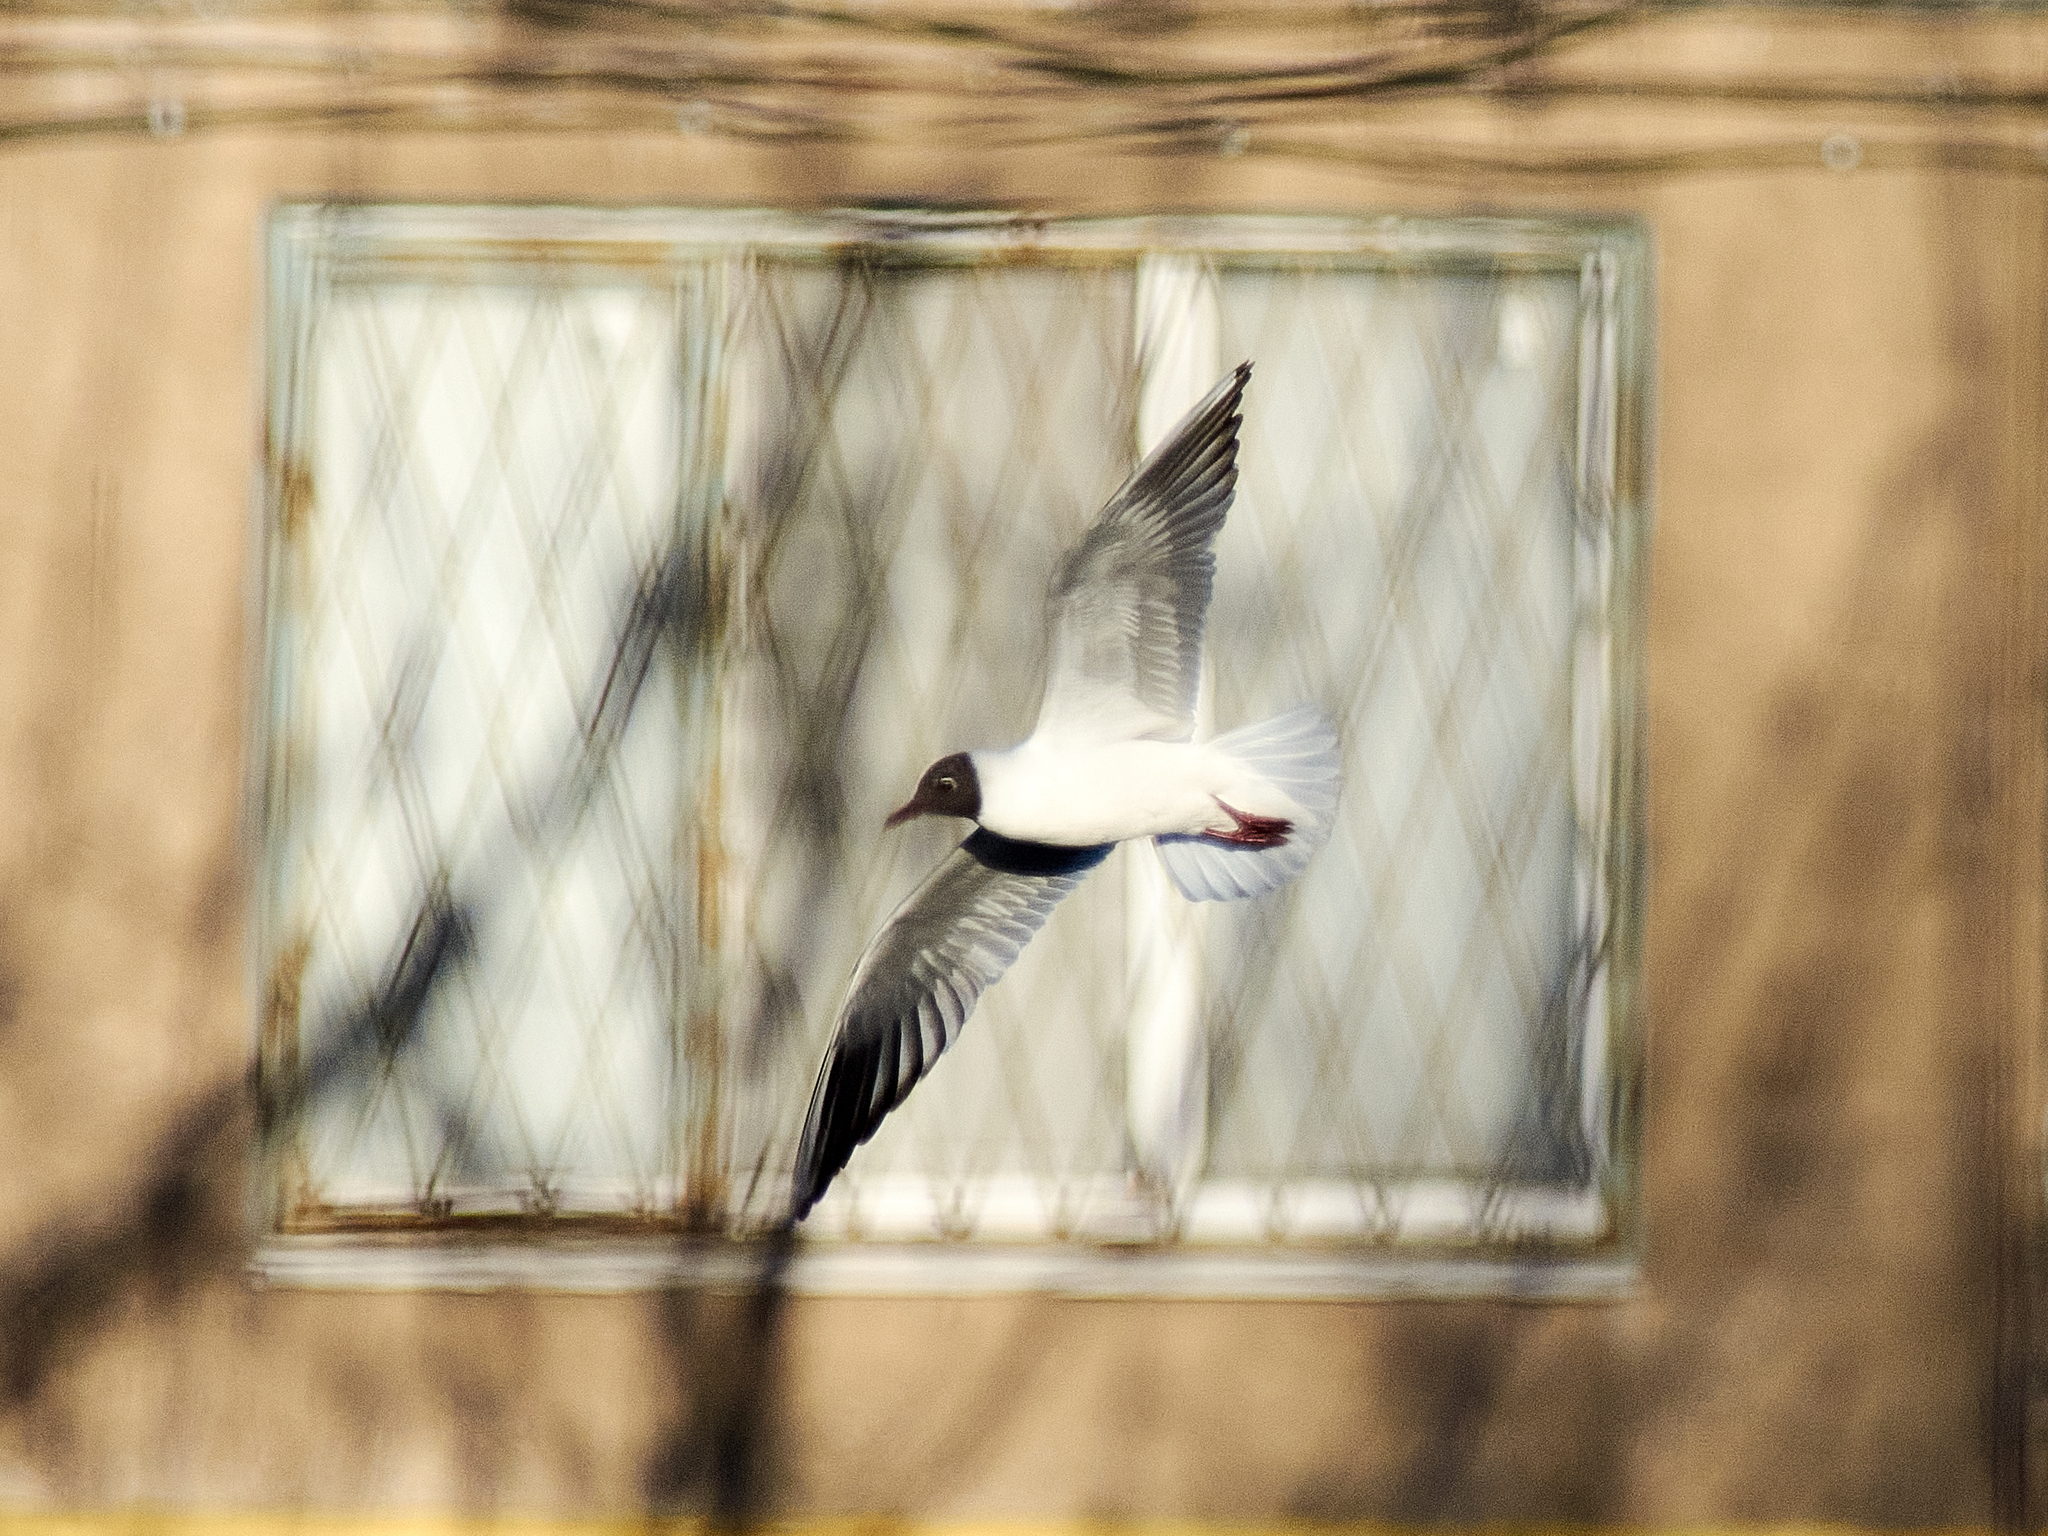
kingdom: Animalia
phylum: Chordata
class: Aves
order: Charadriiformes
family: Laridae
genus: Chroicocephalus
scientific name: Chroicocephalus ridibundus
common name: Black-headed gull
